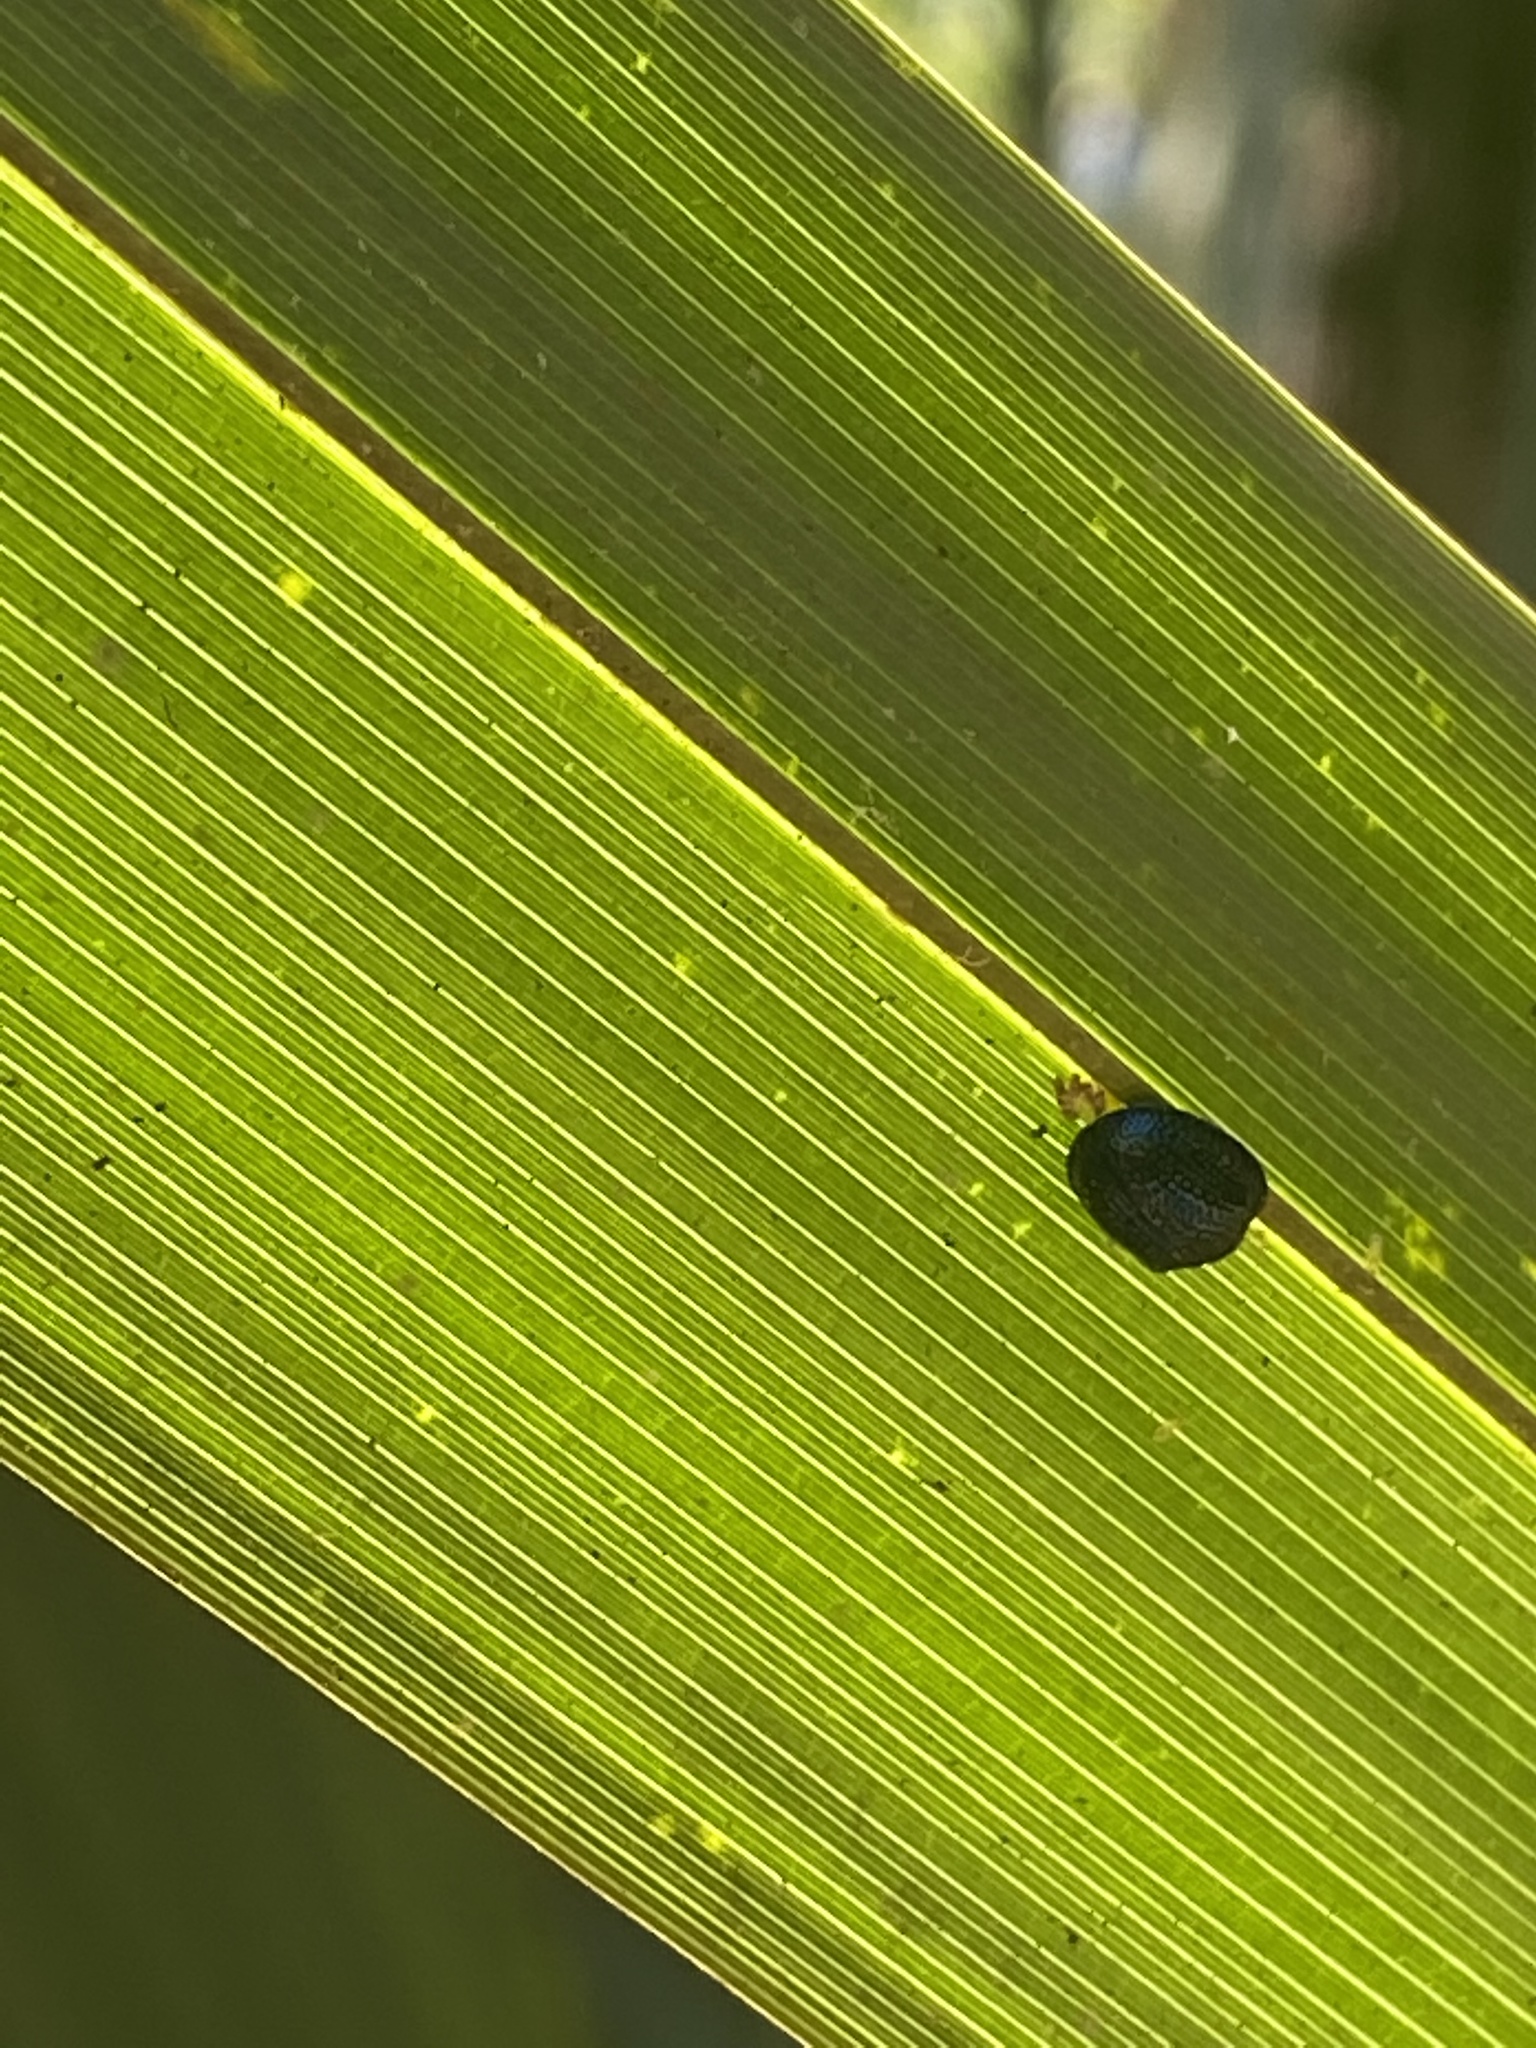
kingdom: Animalia
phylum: Arthropoda
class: Insecta
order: Coleoptera
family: Chrysomelidae
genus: Hemisphaerota
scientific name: Hemisphaerota cyanea
